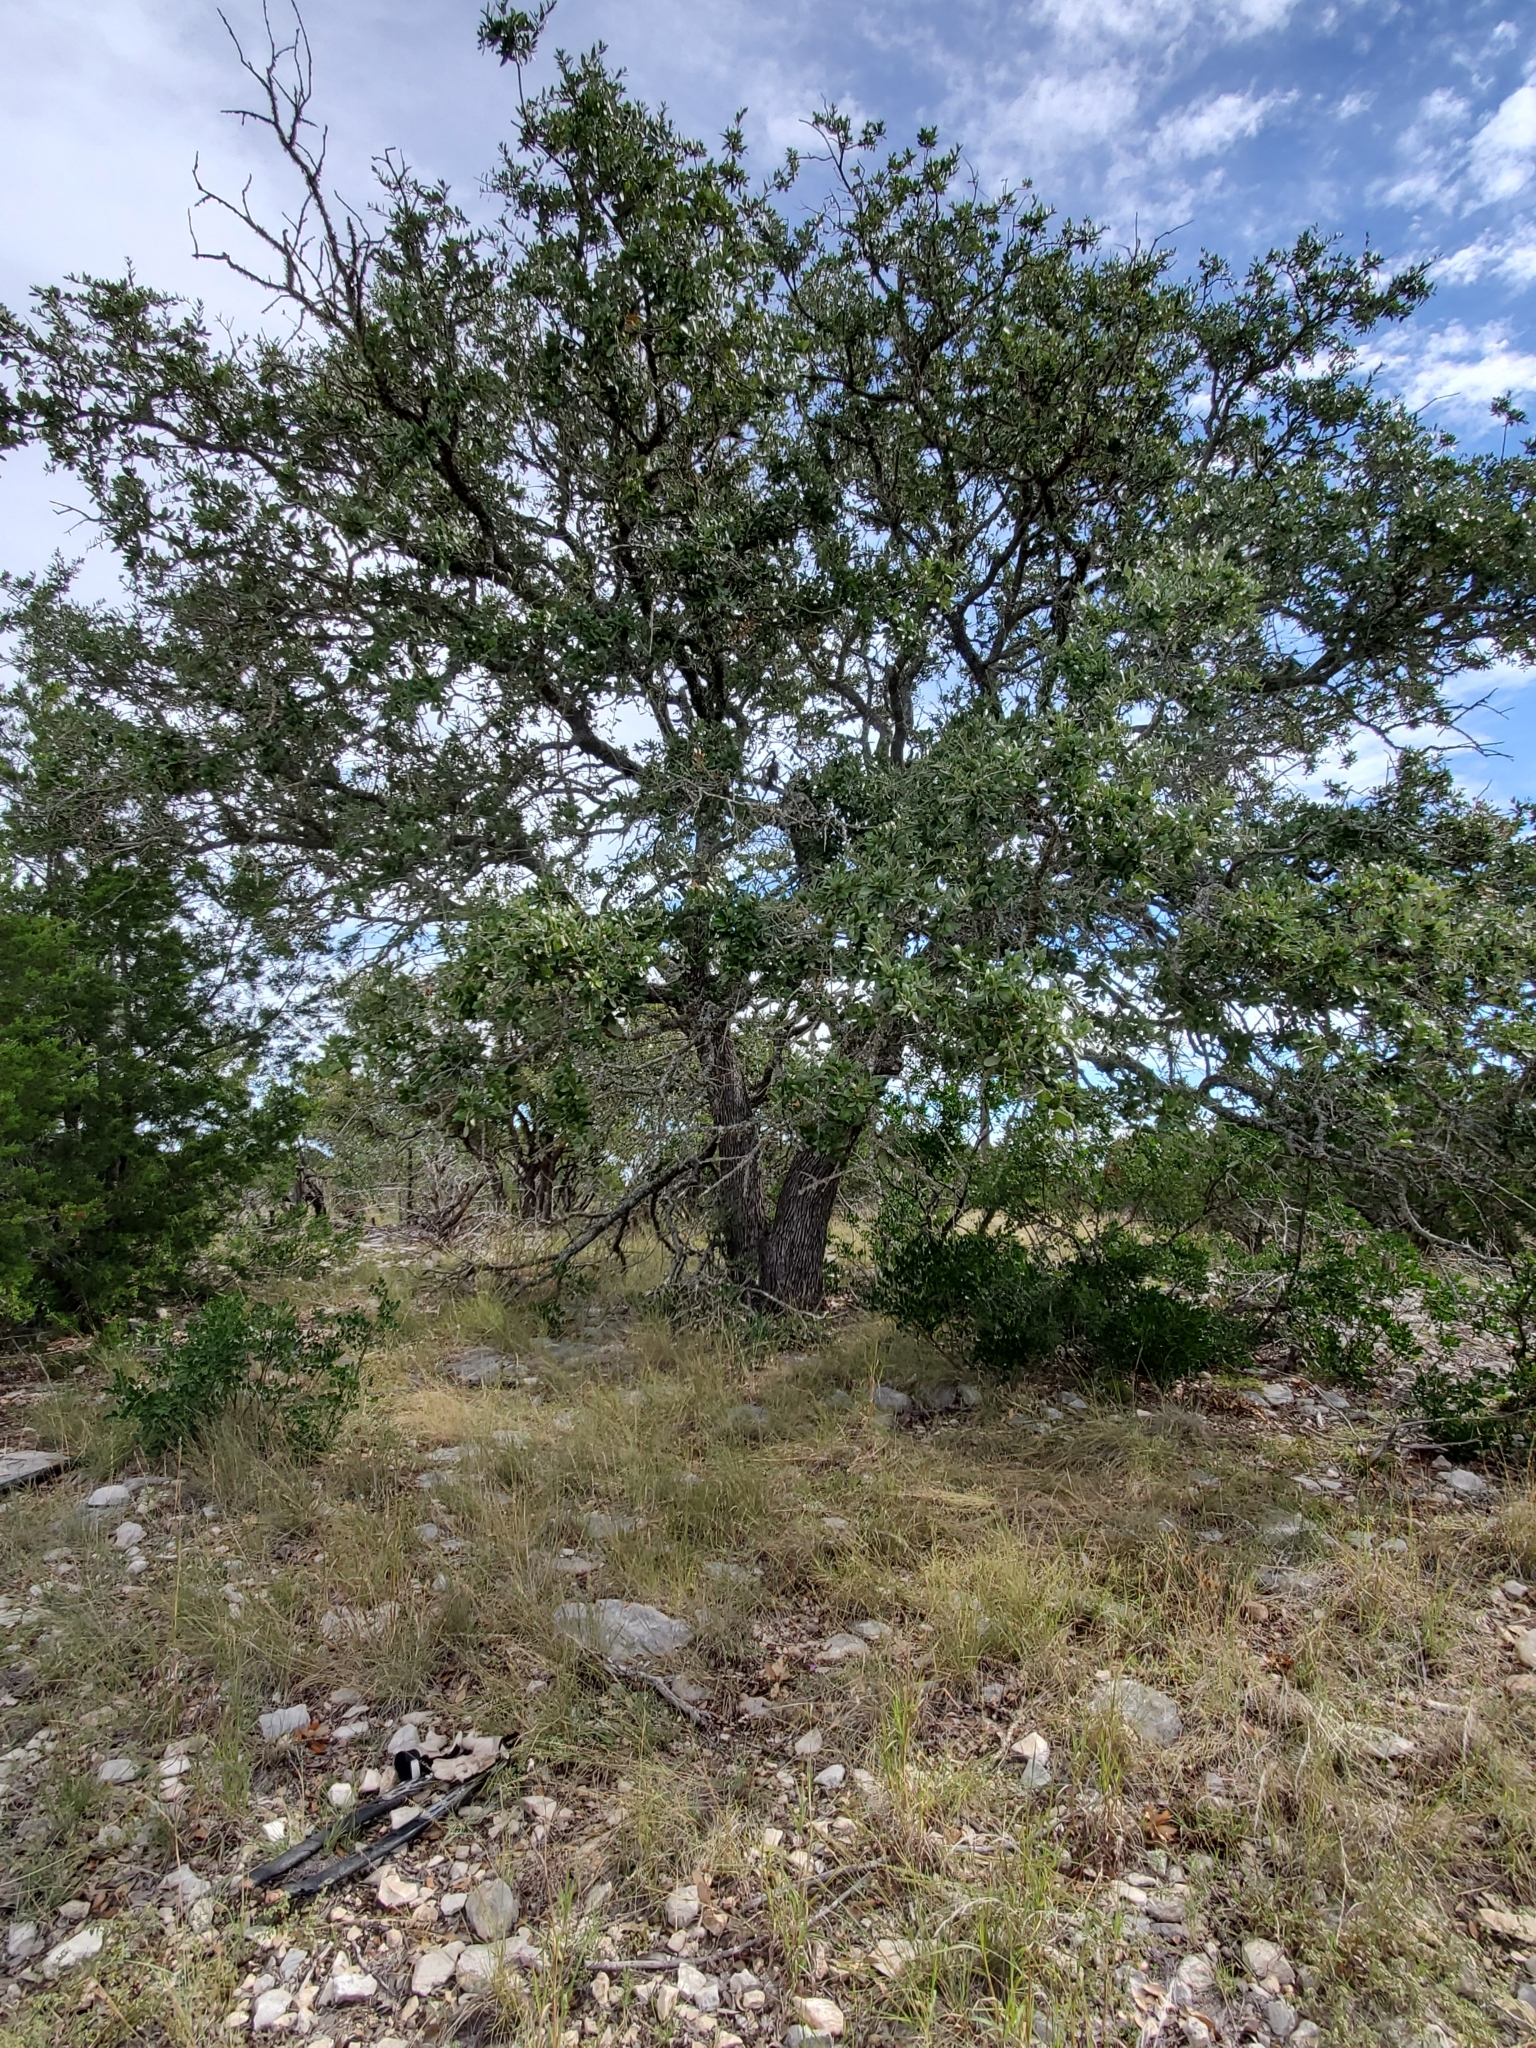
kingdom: Plantae
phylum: Tracheophyta
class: Magnoliopsida
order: Fagales
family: Fagaceae
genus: Quercus
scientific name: Quercus fusiformis
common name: Texas live oak
